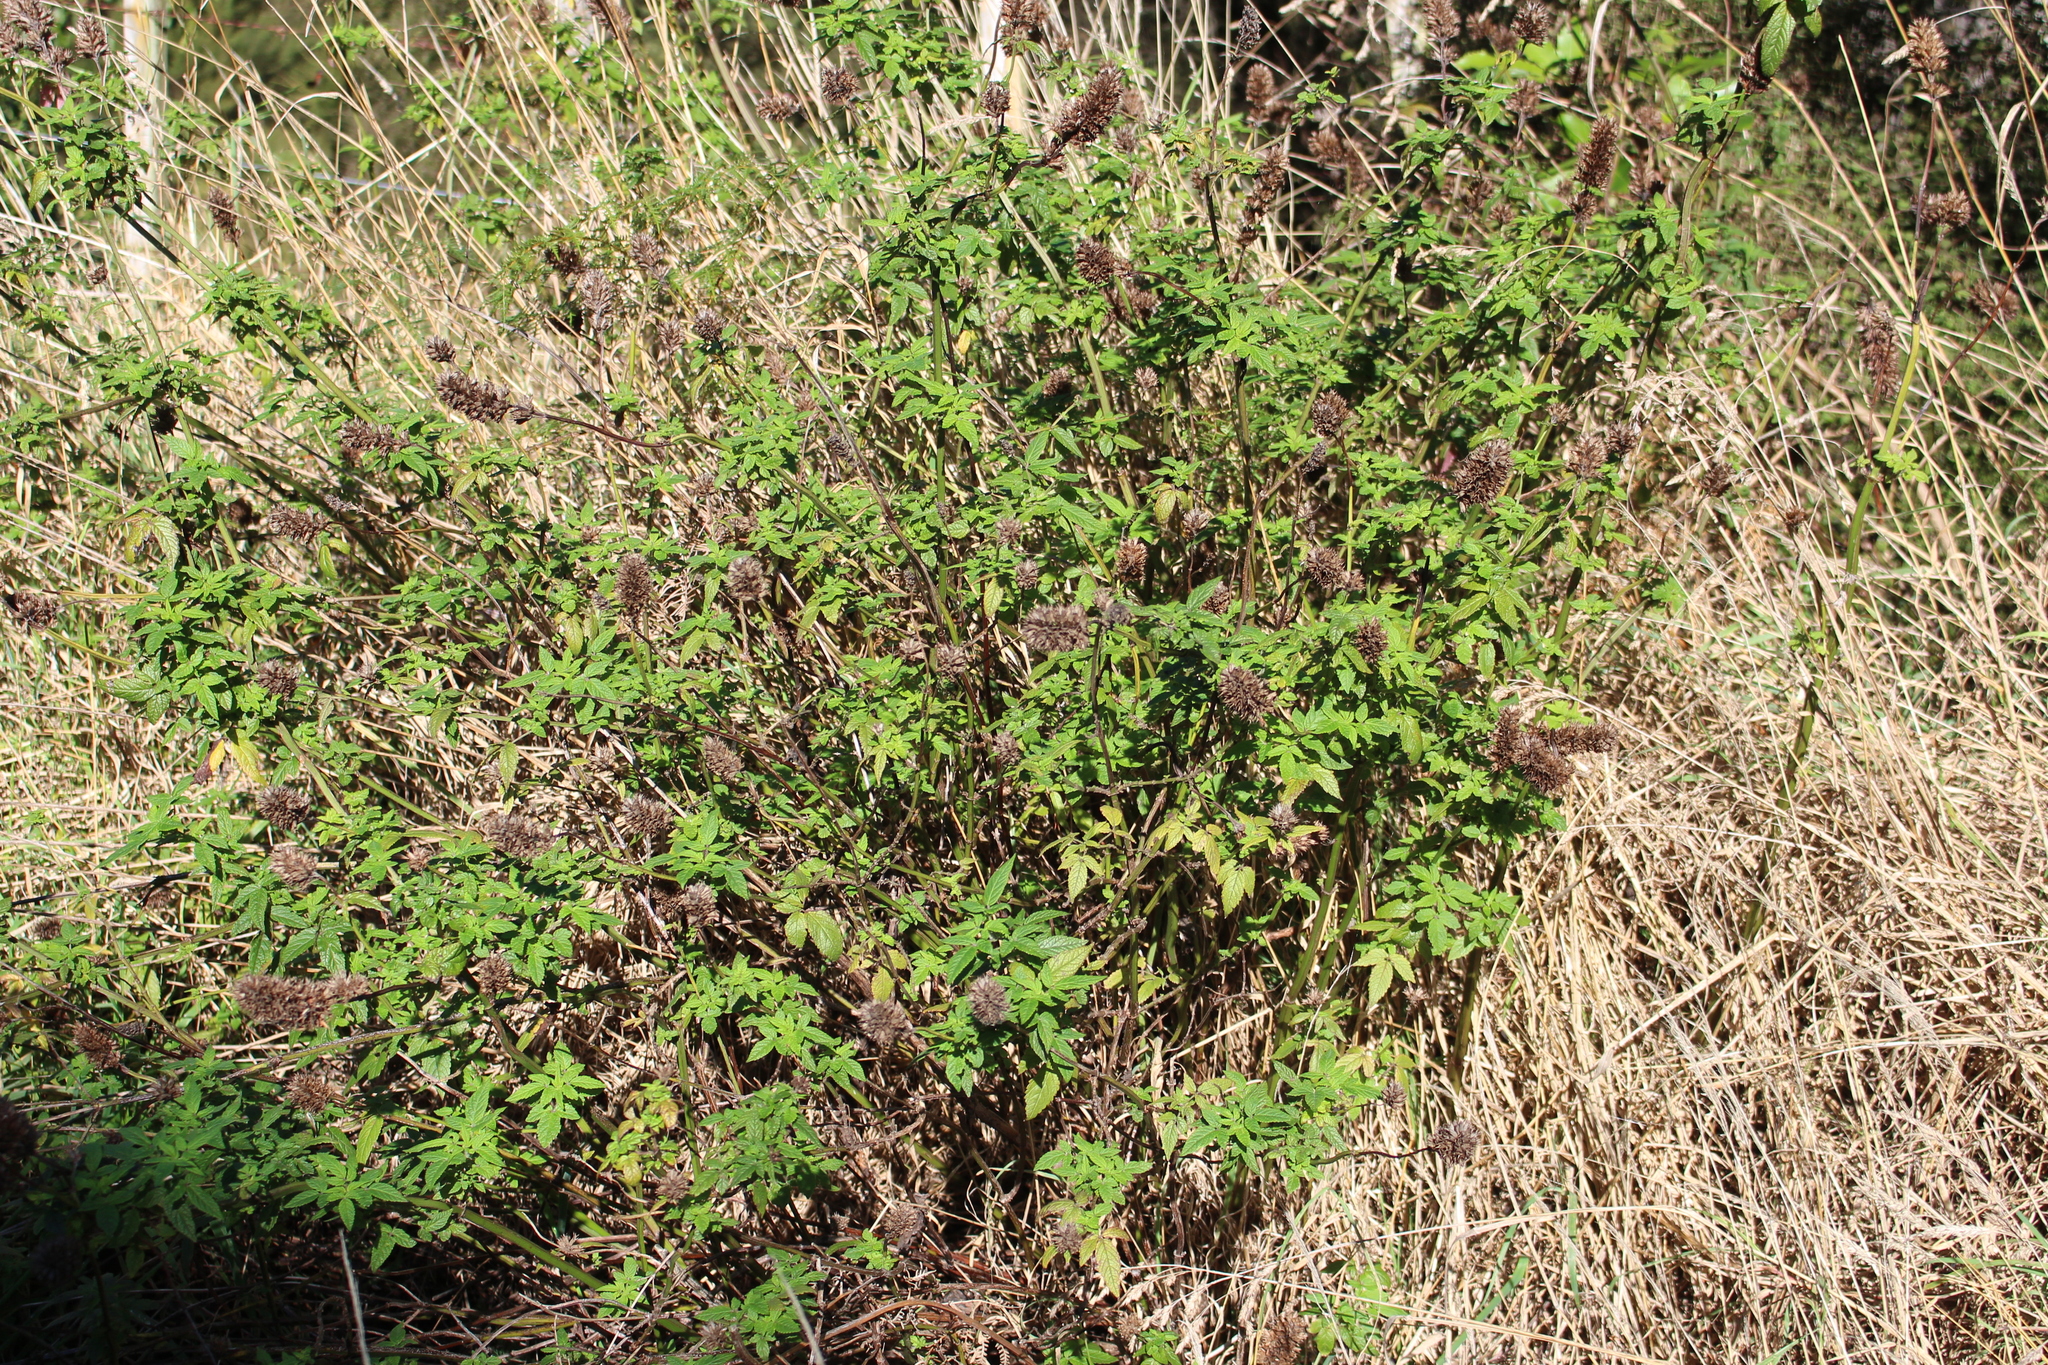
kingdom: Plantae
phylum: Tracheophyta
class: Magnoliopsida
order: Lamiales
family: Lamiaceae
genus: Cedronella
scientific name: Cedronella canariensis
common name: Canary islands balm
